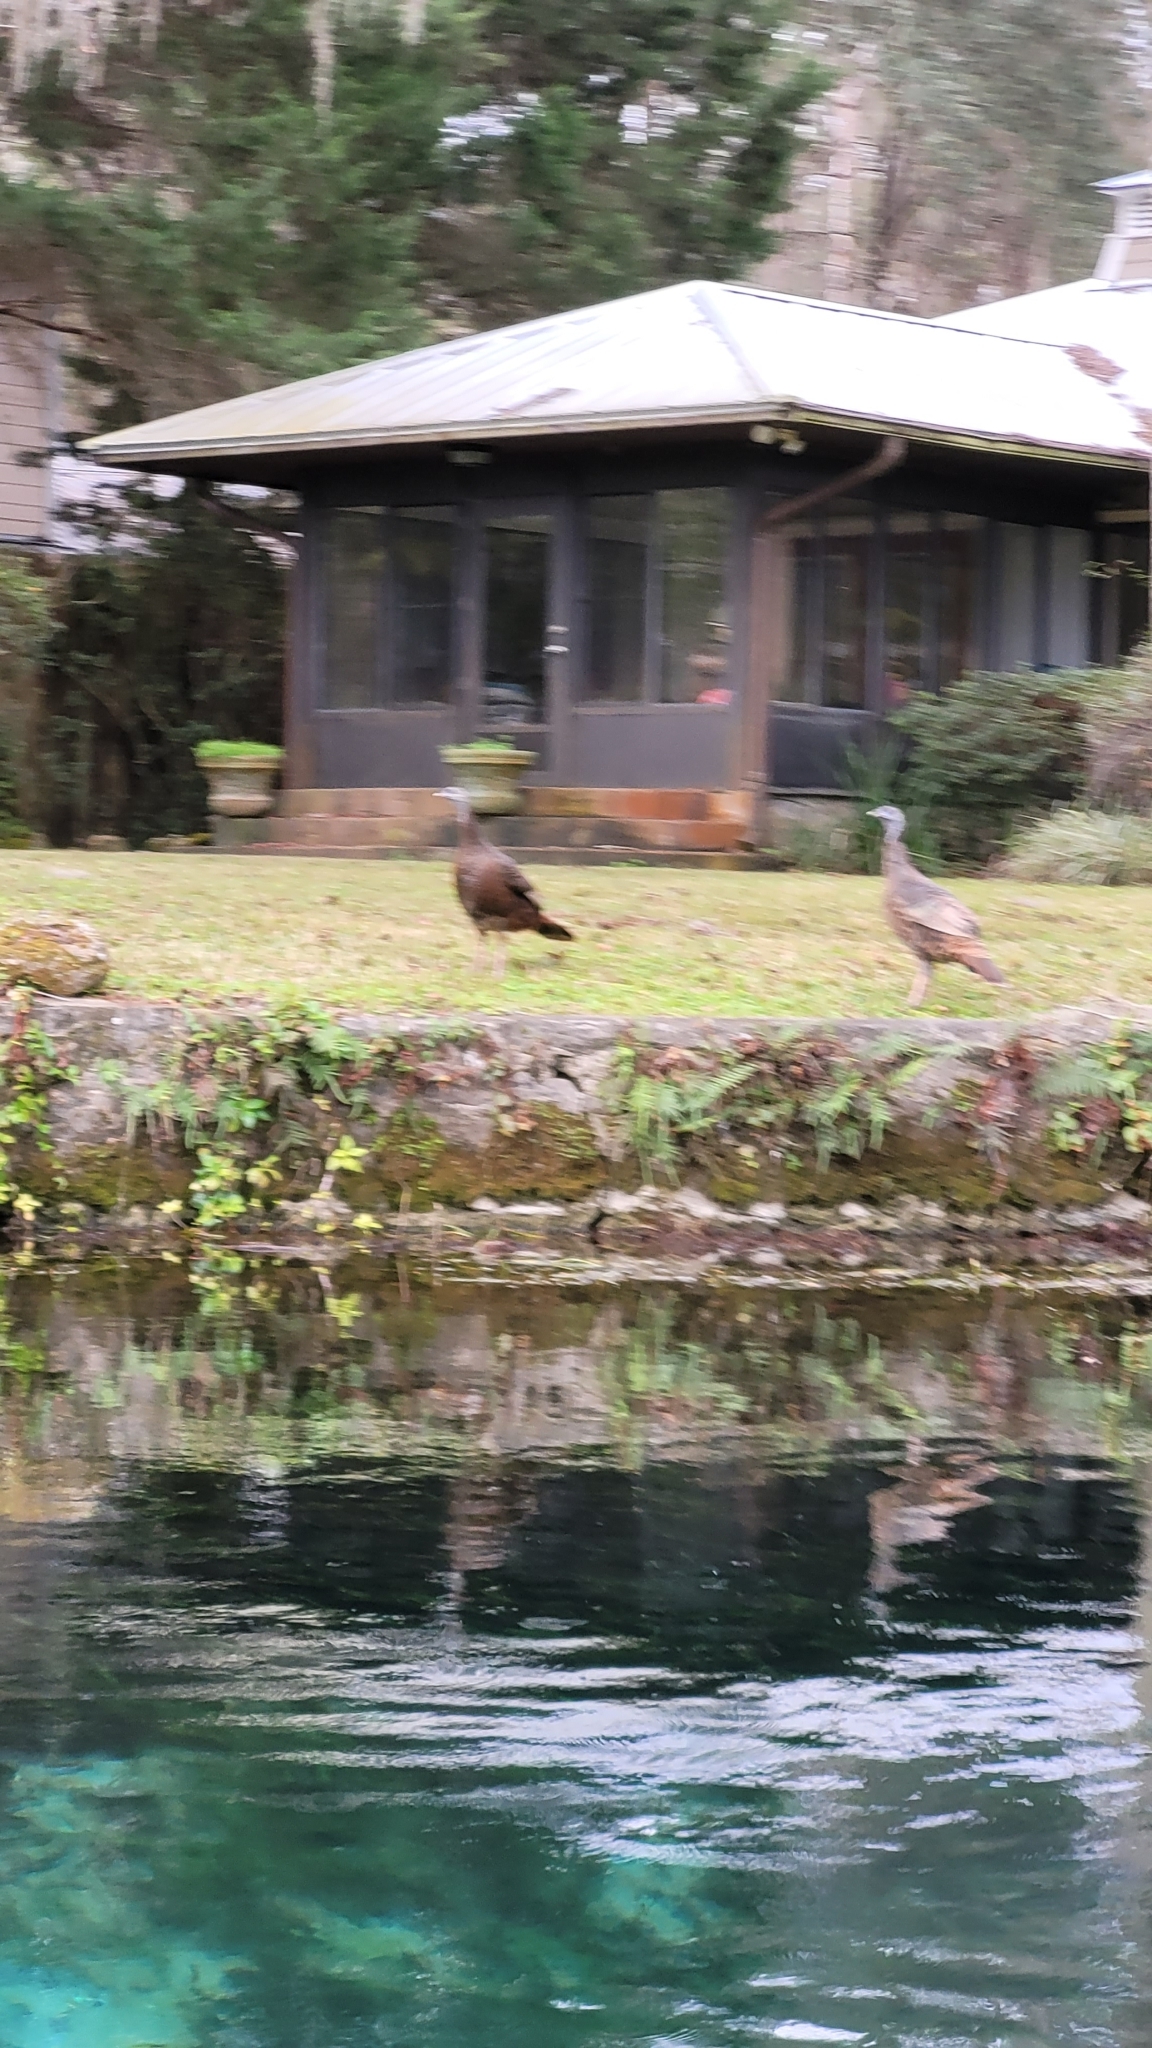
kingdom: Animalia
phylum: Chordata
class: Aves
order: Galliformes
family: Phasianidae
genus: Meleagris
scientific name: Meleagris gallopavo
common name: Wild turkey
